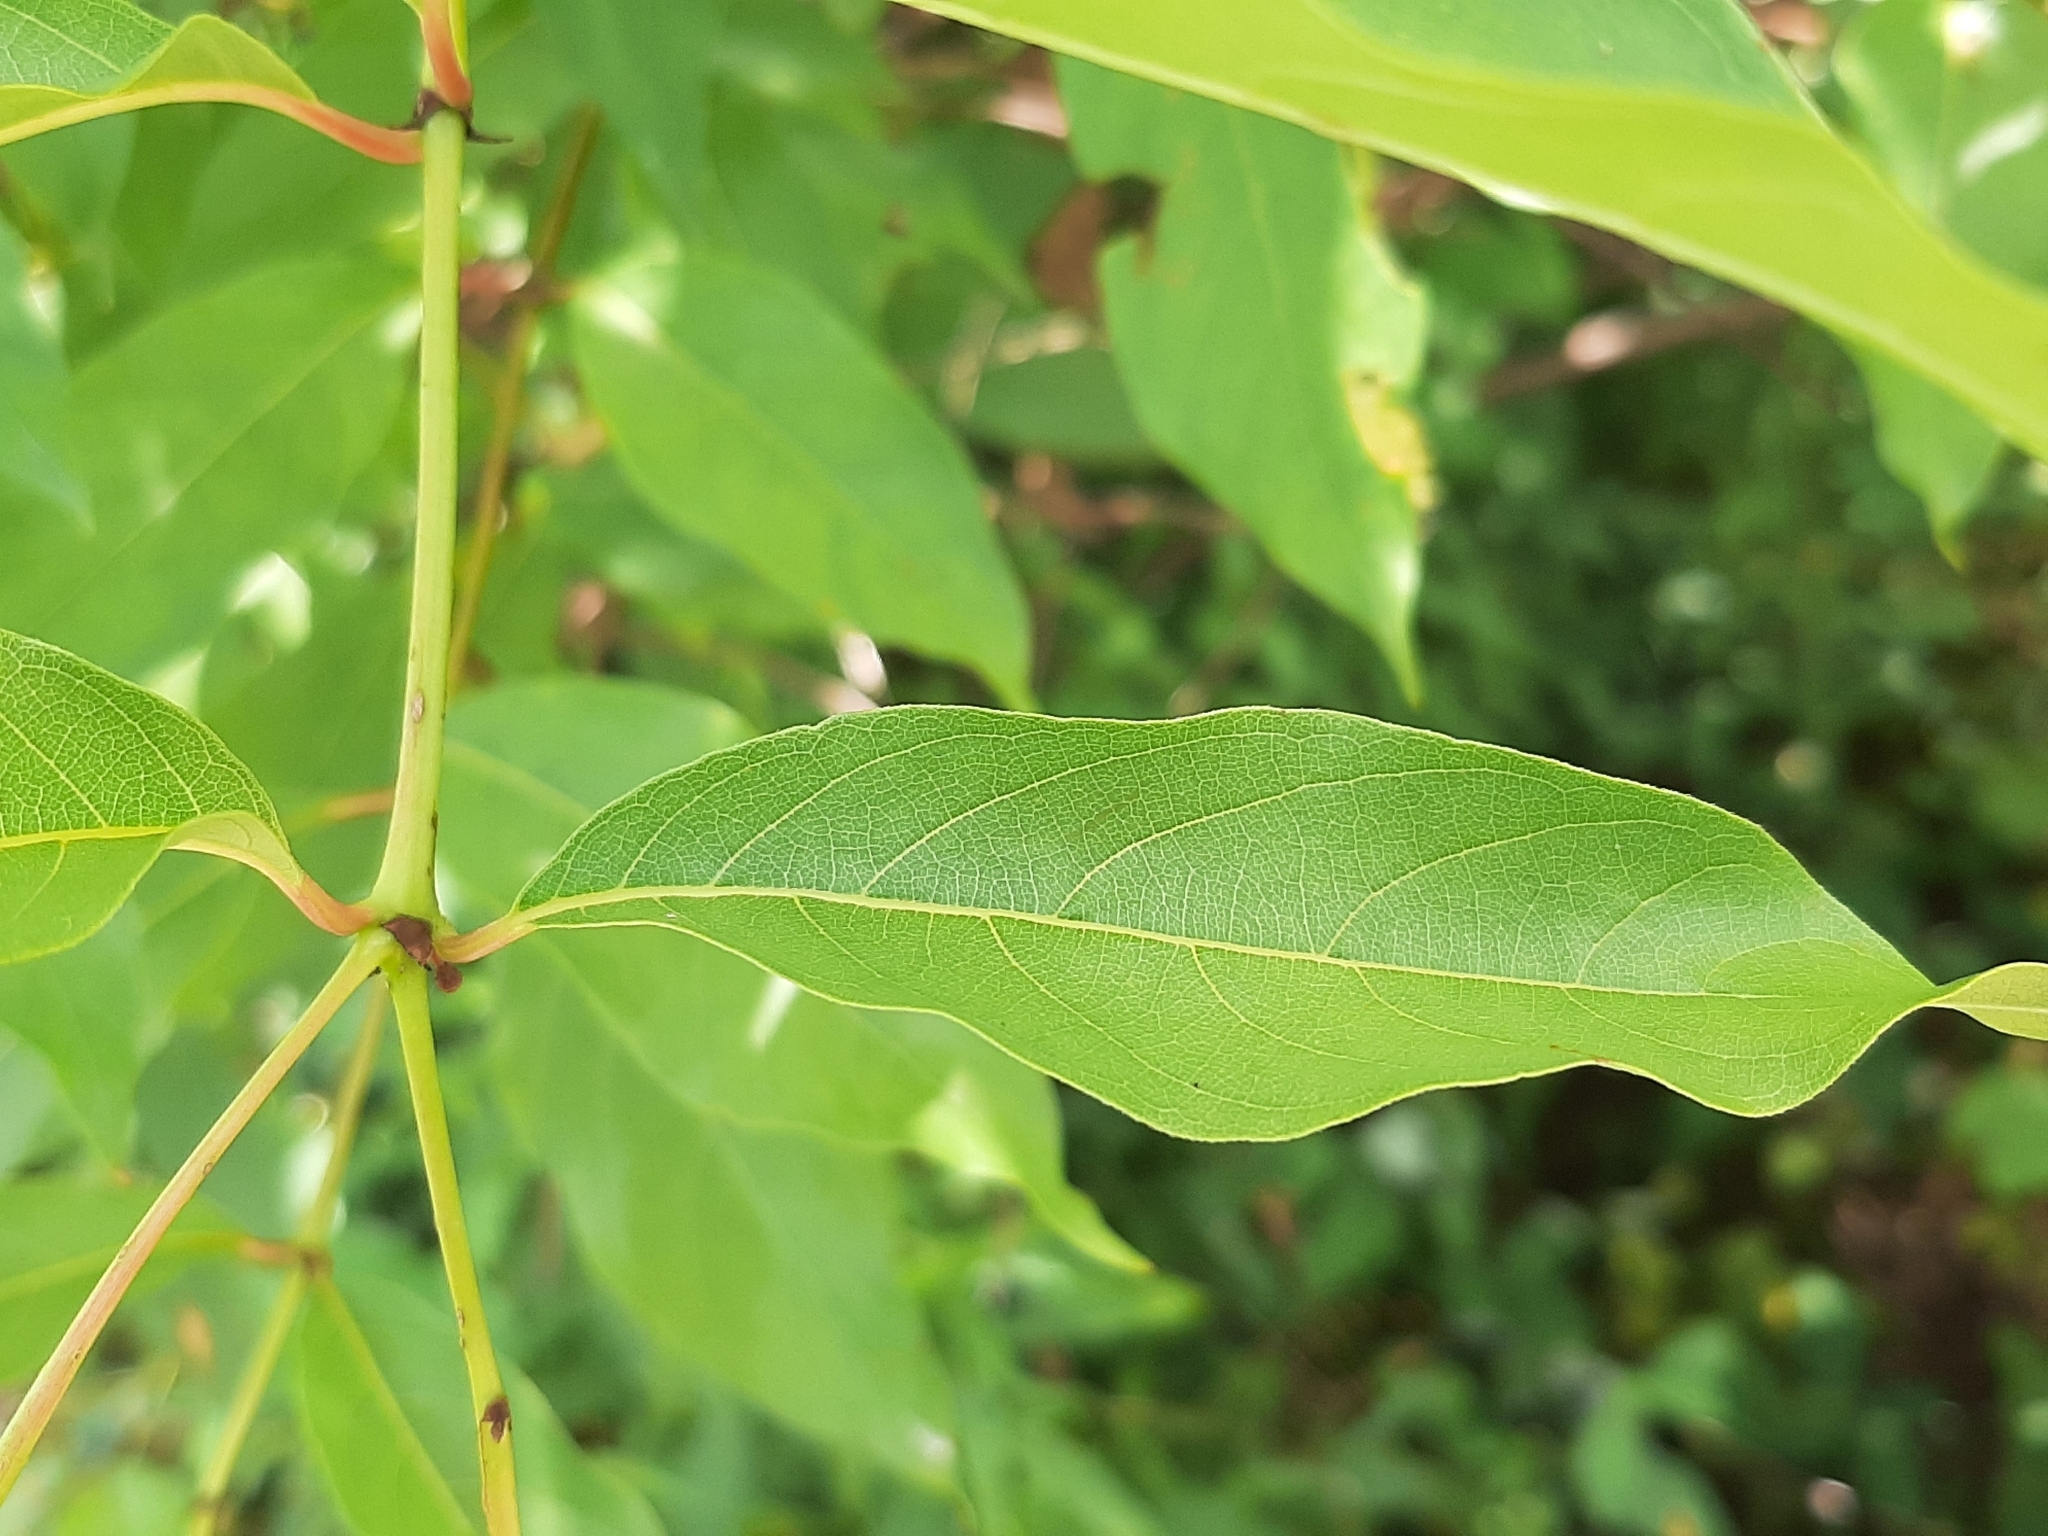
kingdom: Plantae
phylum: Tracheophyta
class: Magnoliopsida
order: Gentianales
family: Rubiaceae
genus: Cephalanthus
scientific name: Cephalanthus occidentalis
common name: Button-willow
